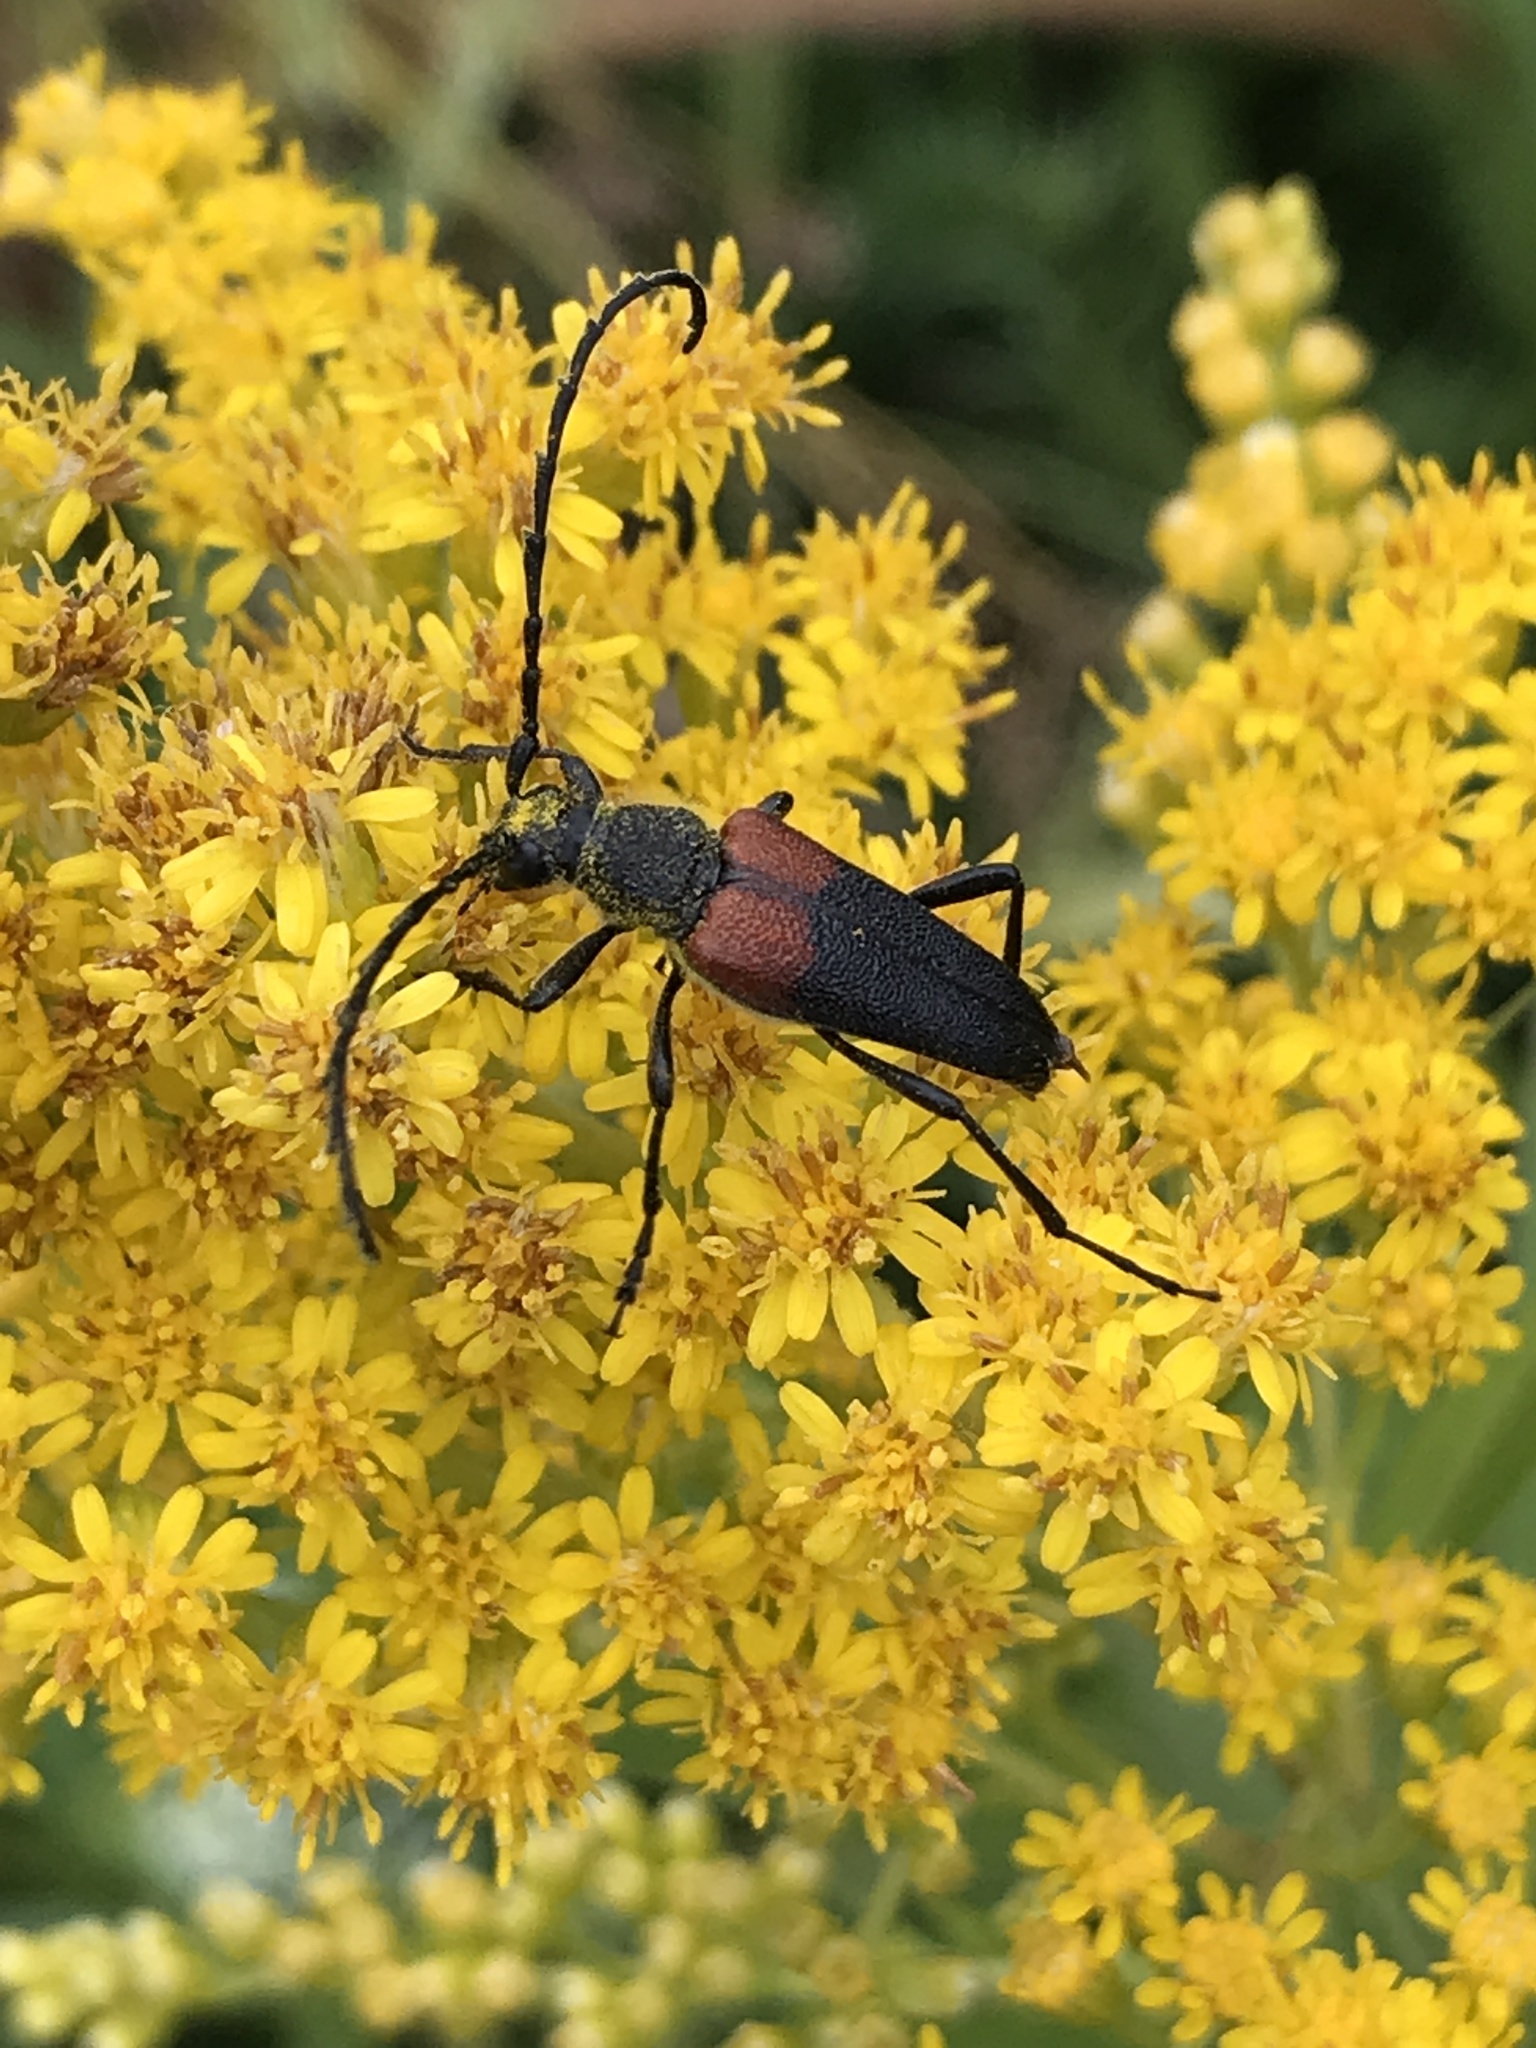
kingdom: Animalia
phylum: Arthropoda
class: Insecta
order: Coleoptera
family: Cerambycidae
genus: Stictoleptura
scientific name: Stictoleptura canadensis
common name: Red-shouldered pine borer
